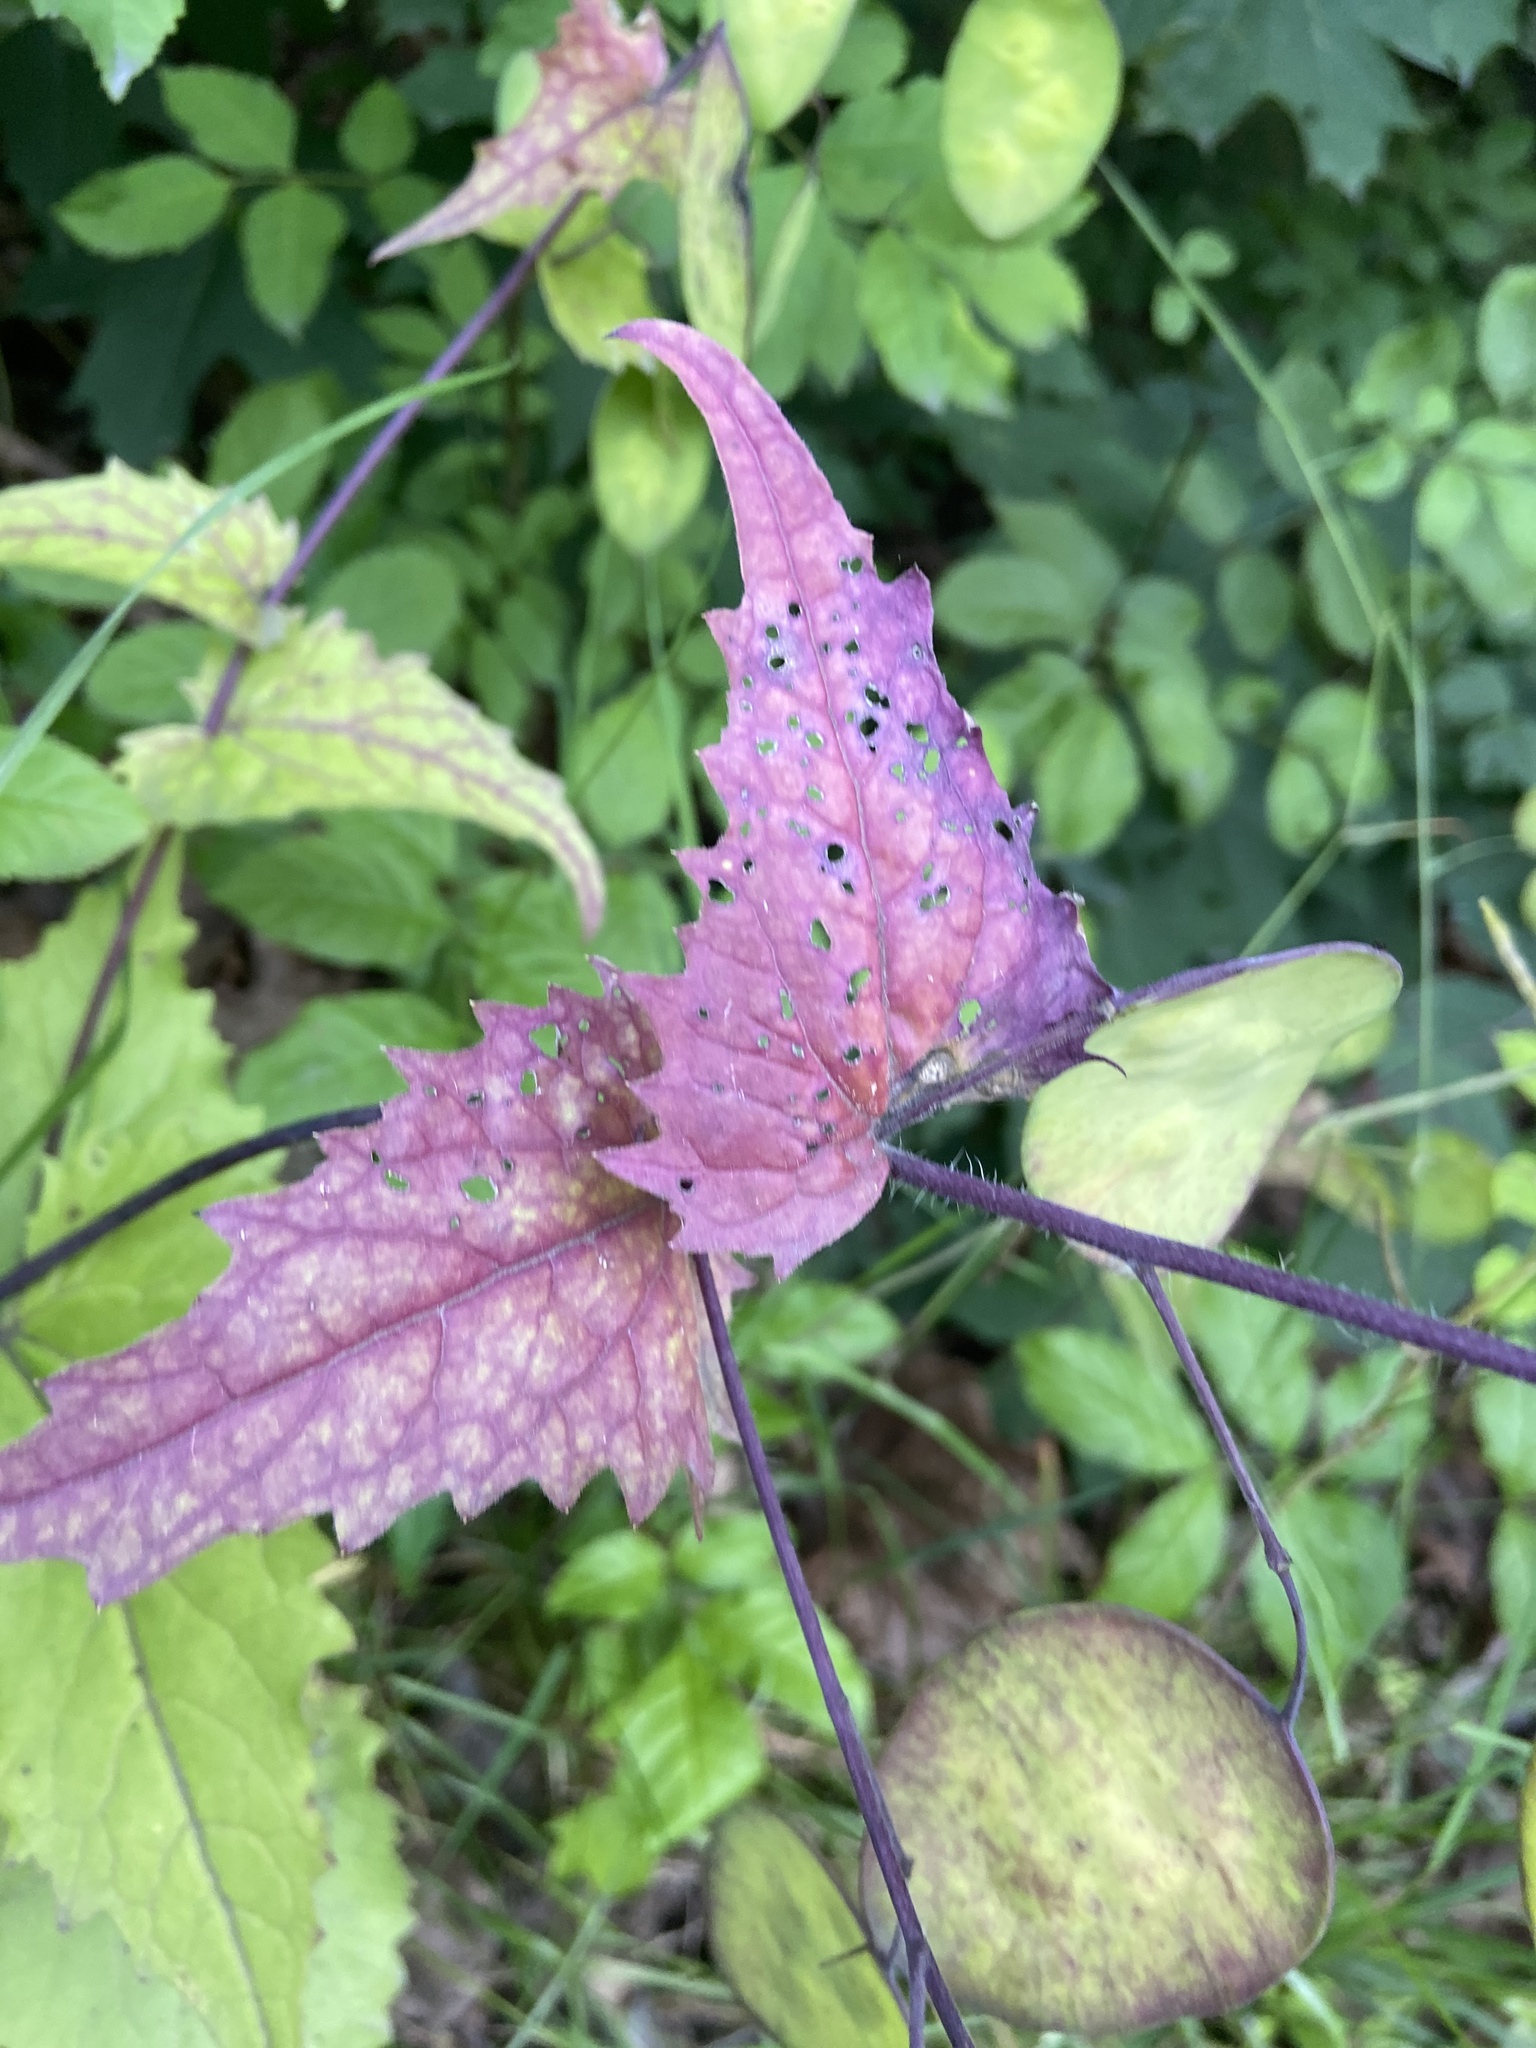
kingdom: Plantae
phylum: Tracheophyta
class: Magnoliopsida
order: Brassicales
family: Brassicaceae
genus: Lunaria
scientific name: Lunaria annua
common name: Honesty
